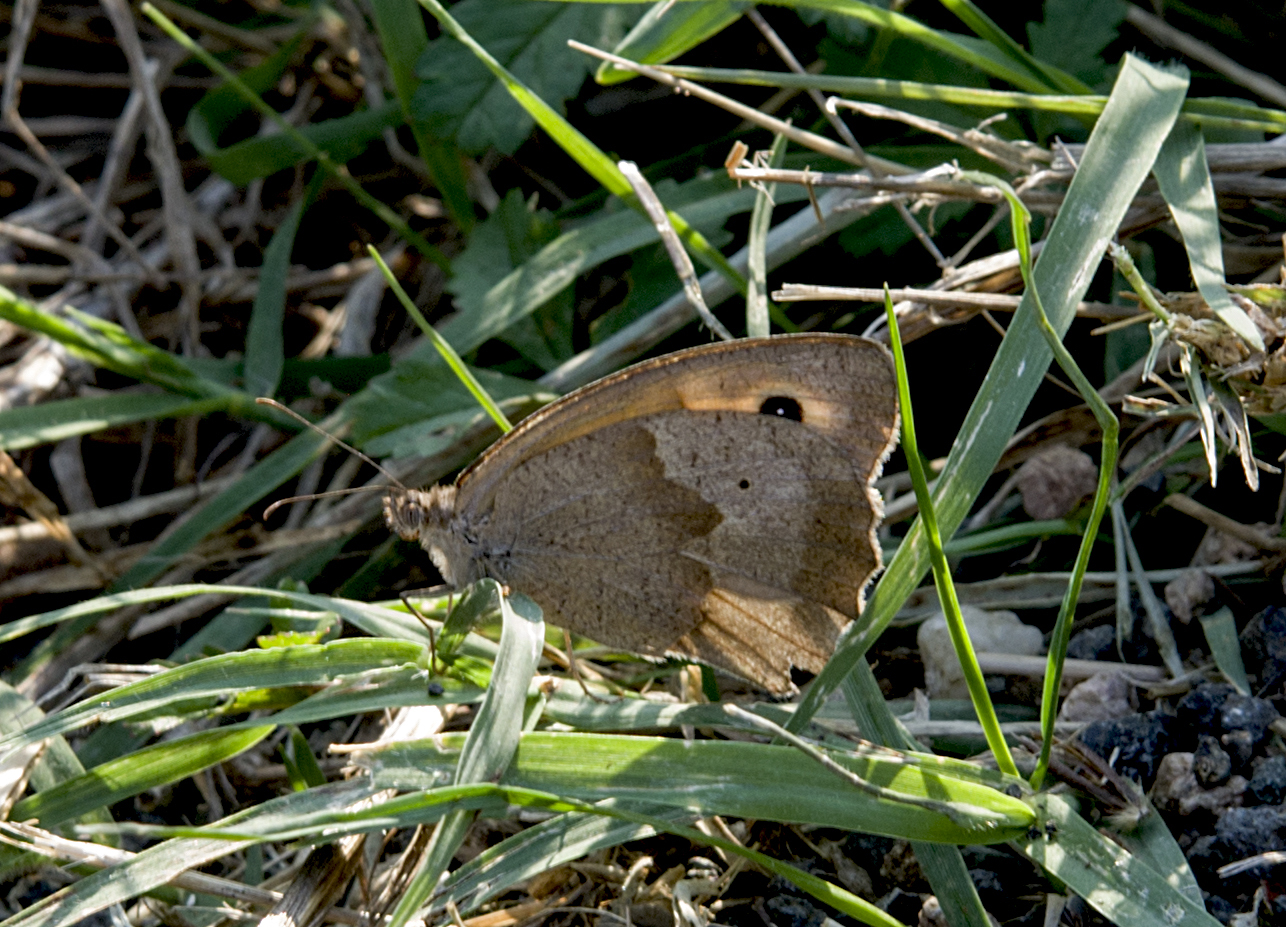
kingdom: Animalia
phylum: Arthropoda
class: Insecta
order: Lepidoptera
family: Nymphalidae
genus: Maniola
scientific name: Maniola jurtina
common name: Meadow brown
